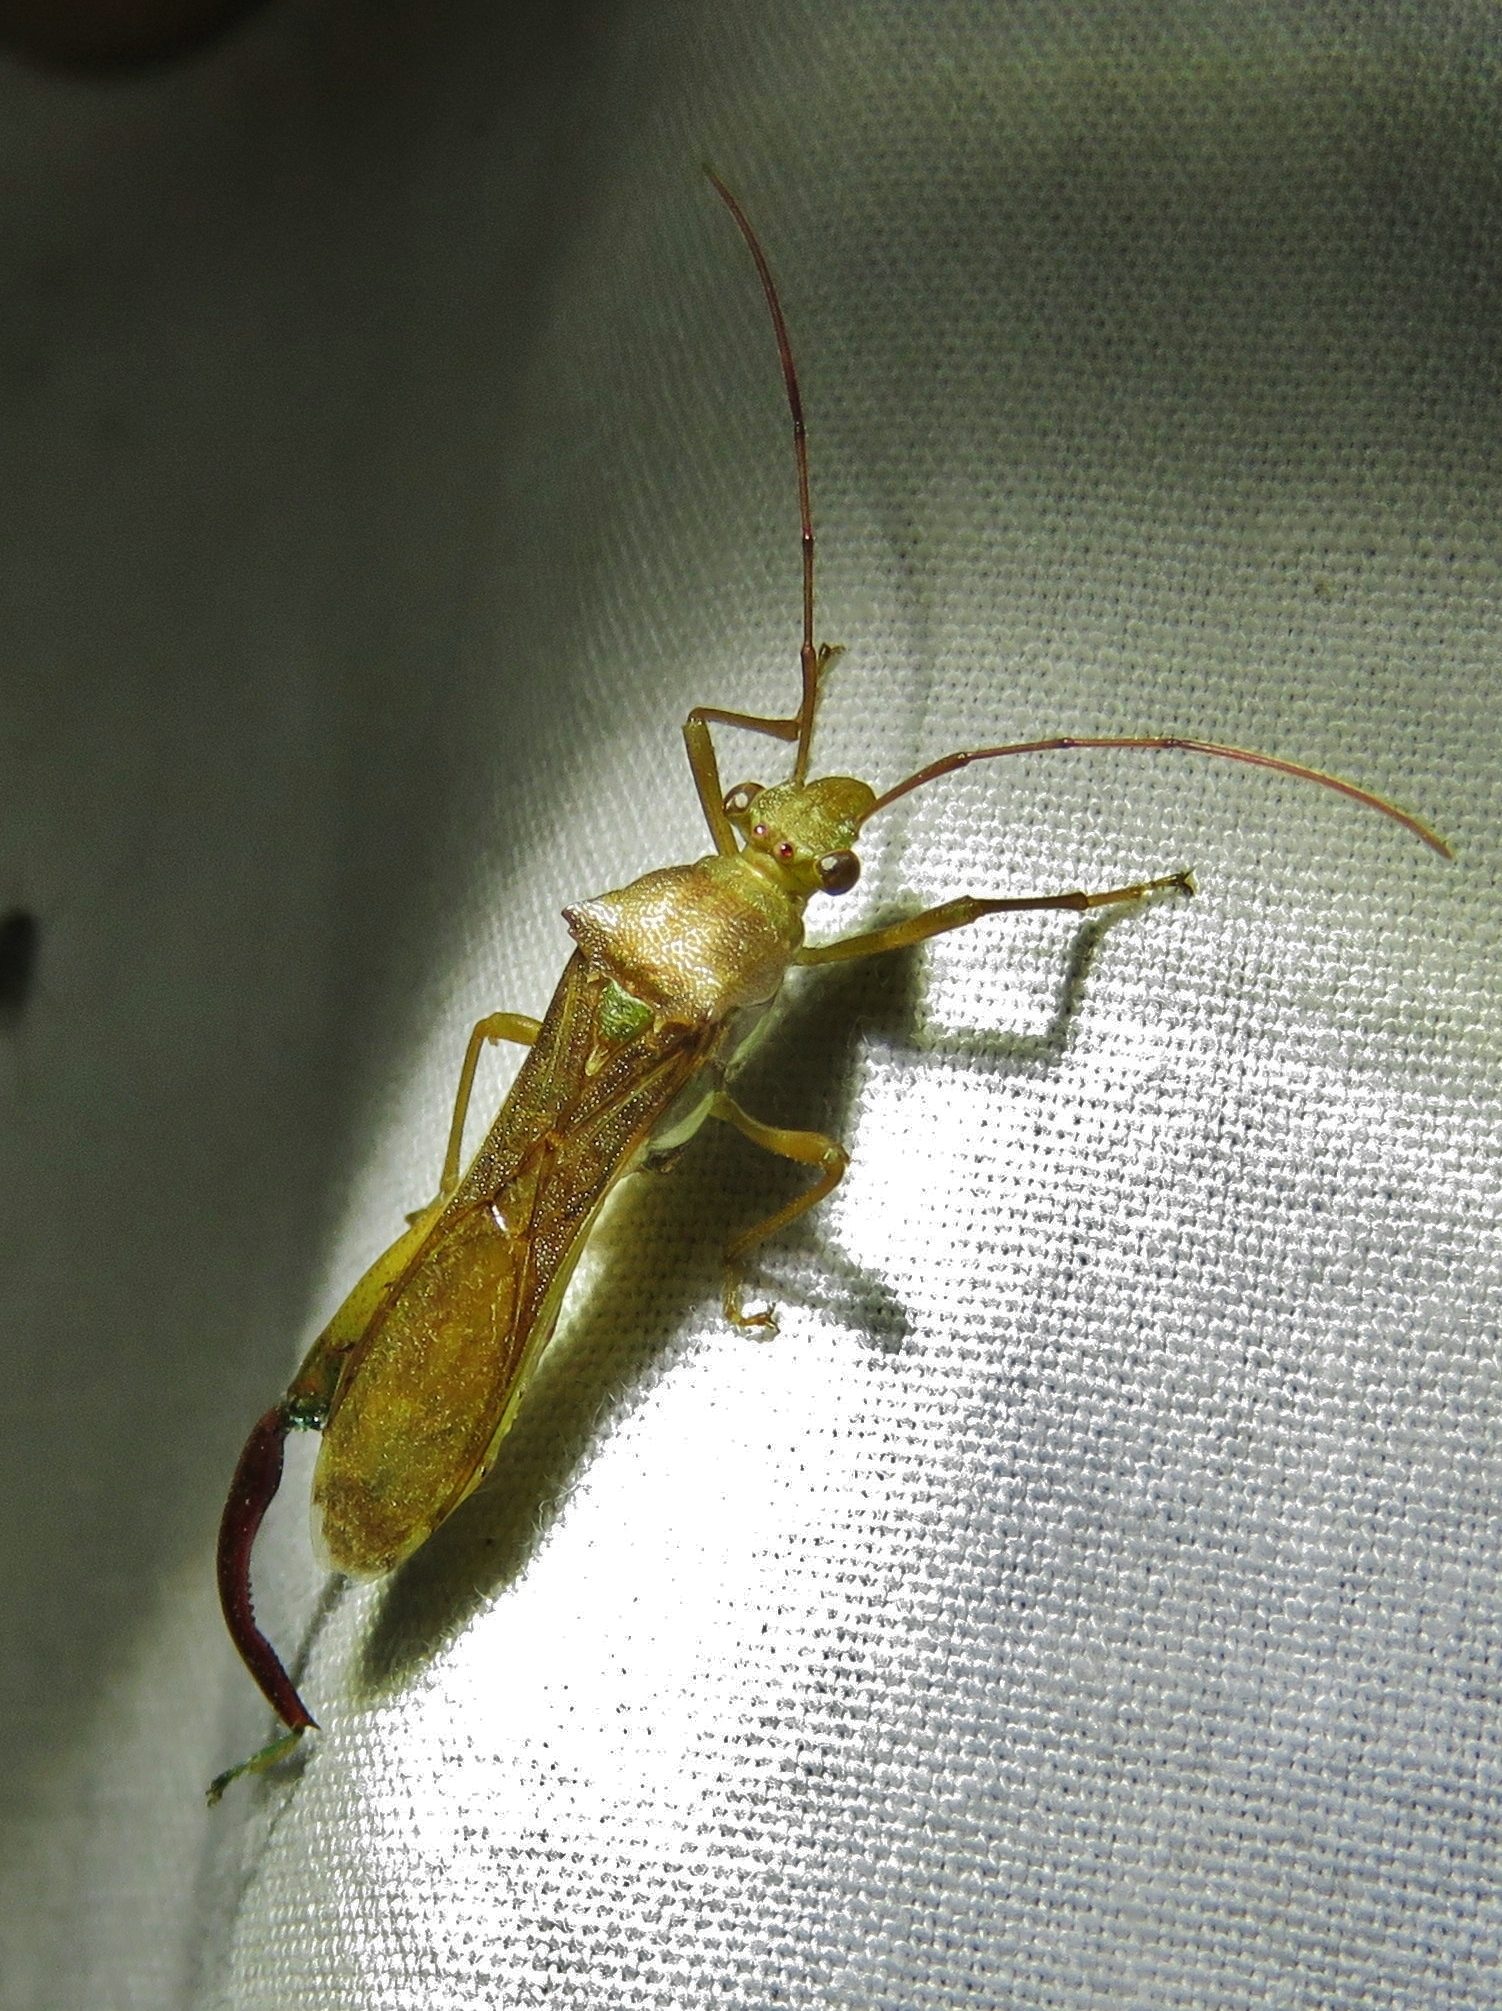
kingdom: Animalia
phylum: Arthropoda
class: Insecta
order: Hemiptera
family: Alydidae
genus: Hyalymenus
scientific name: Hyalymenus tarsatus
